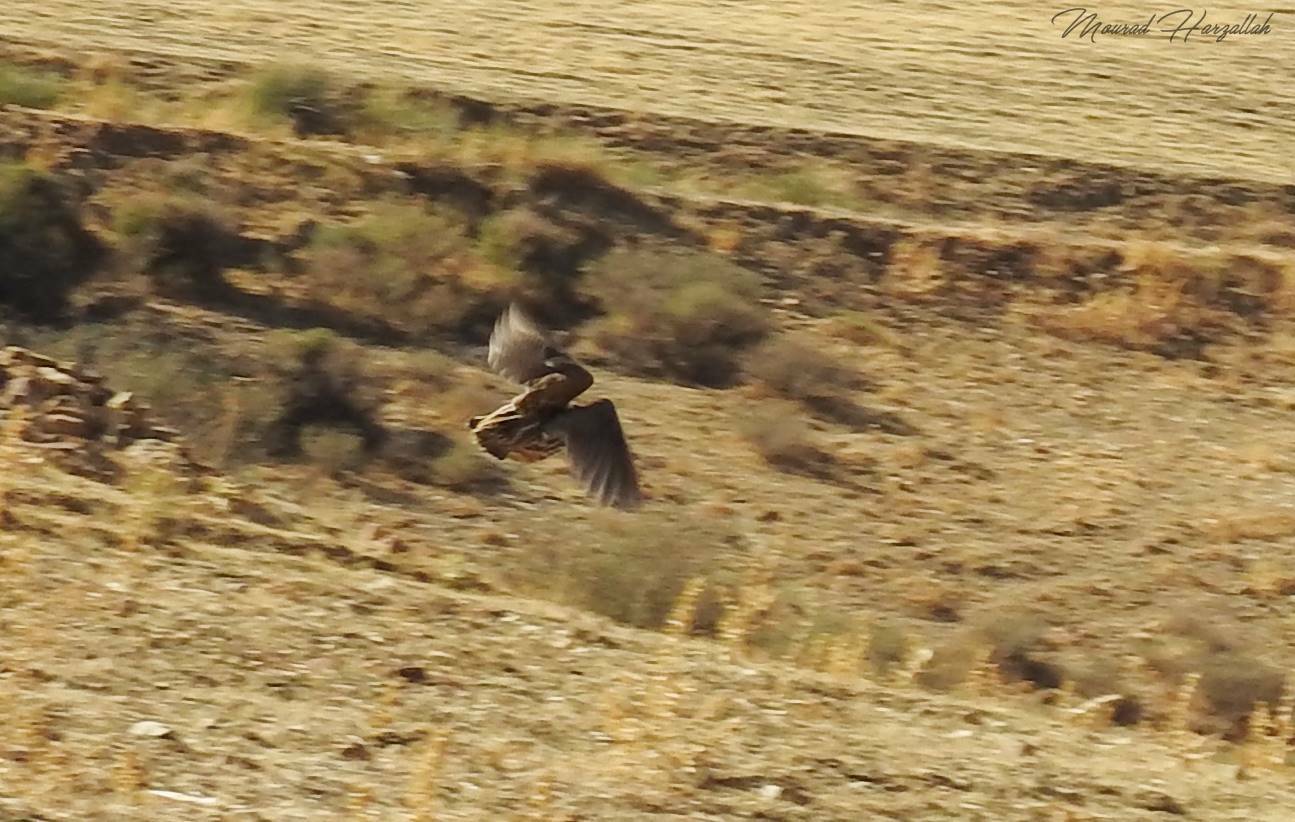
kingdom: Animalia
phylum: Chordata
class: Aves
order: Galliformes
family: Phasianidae
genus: Coturnix
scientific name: Coturnix coturnix
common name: Common quail
